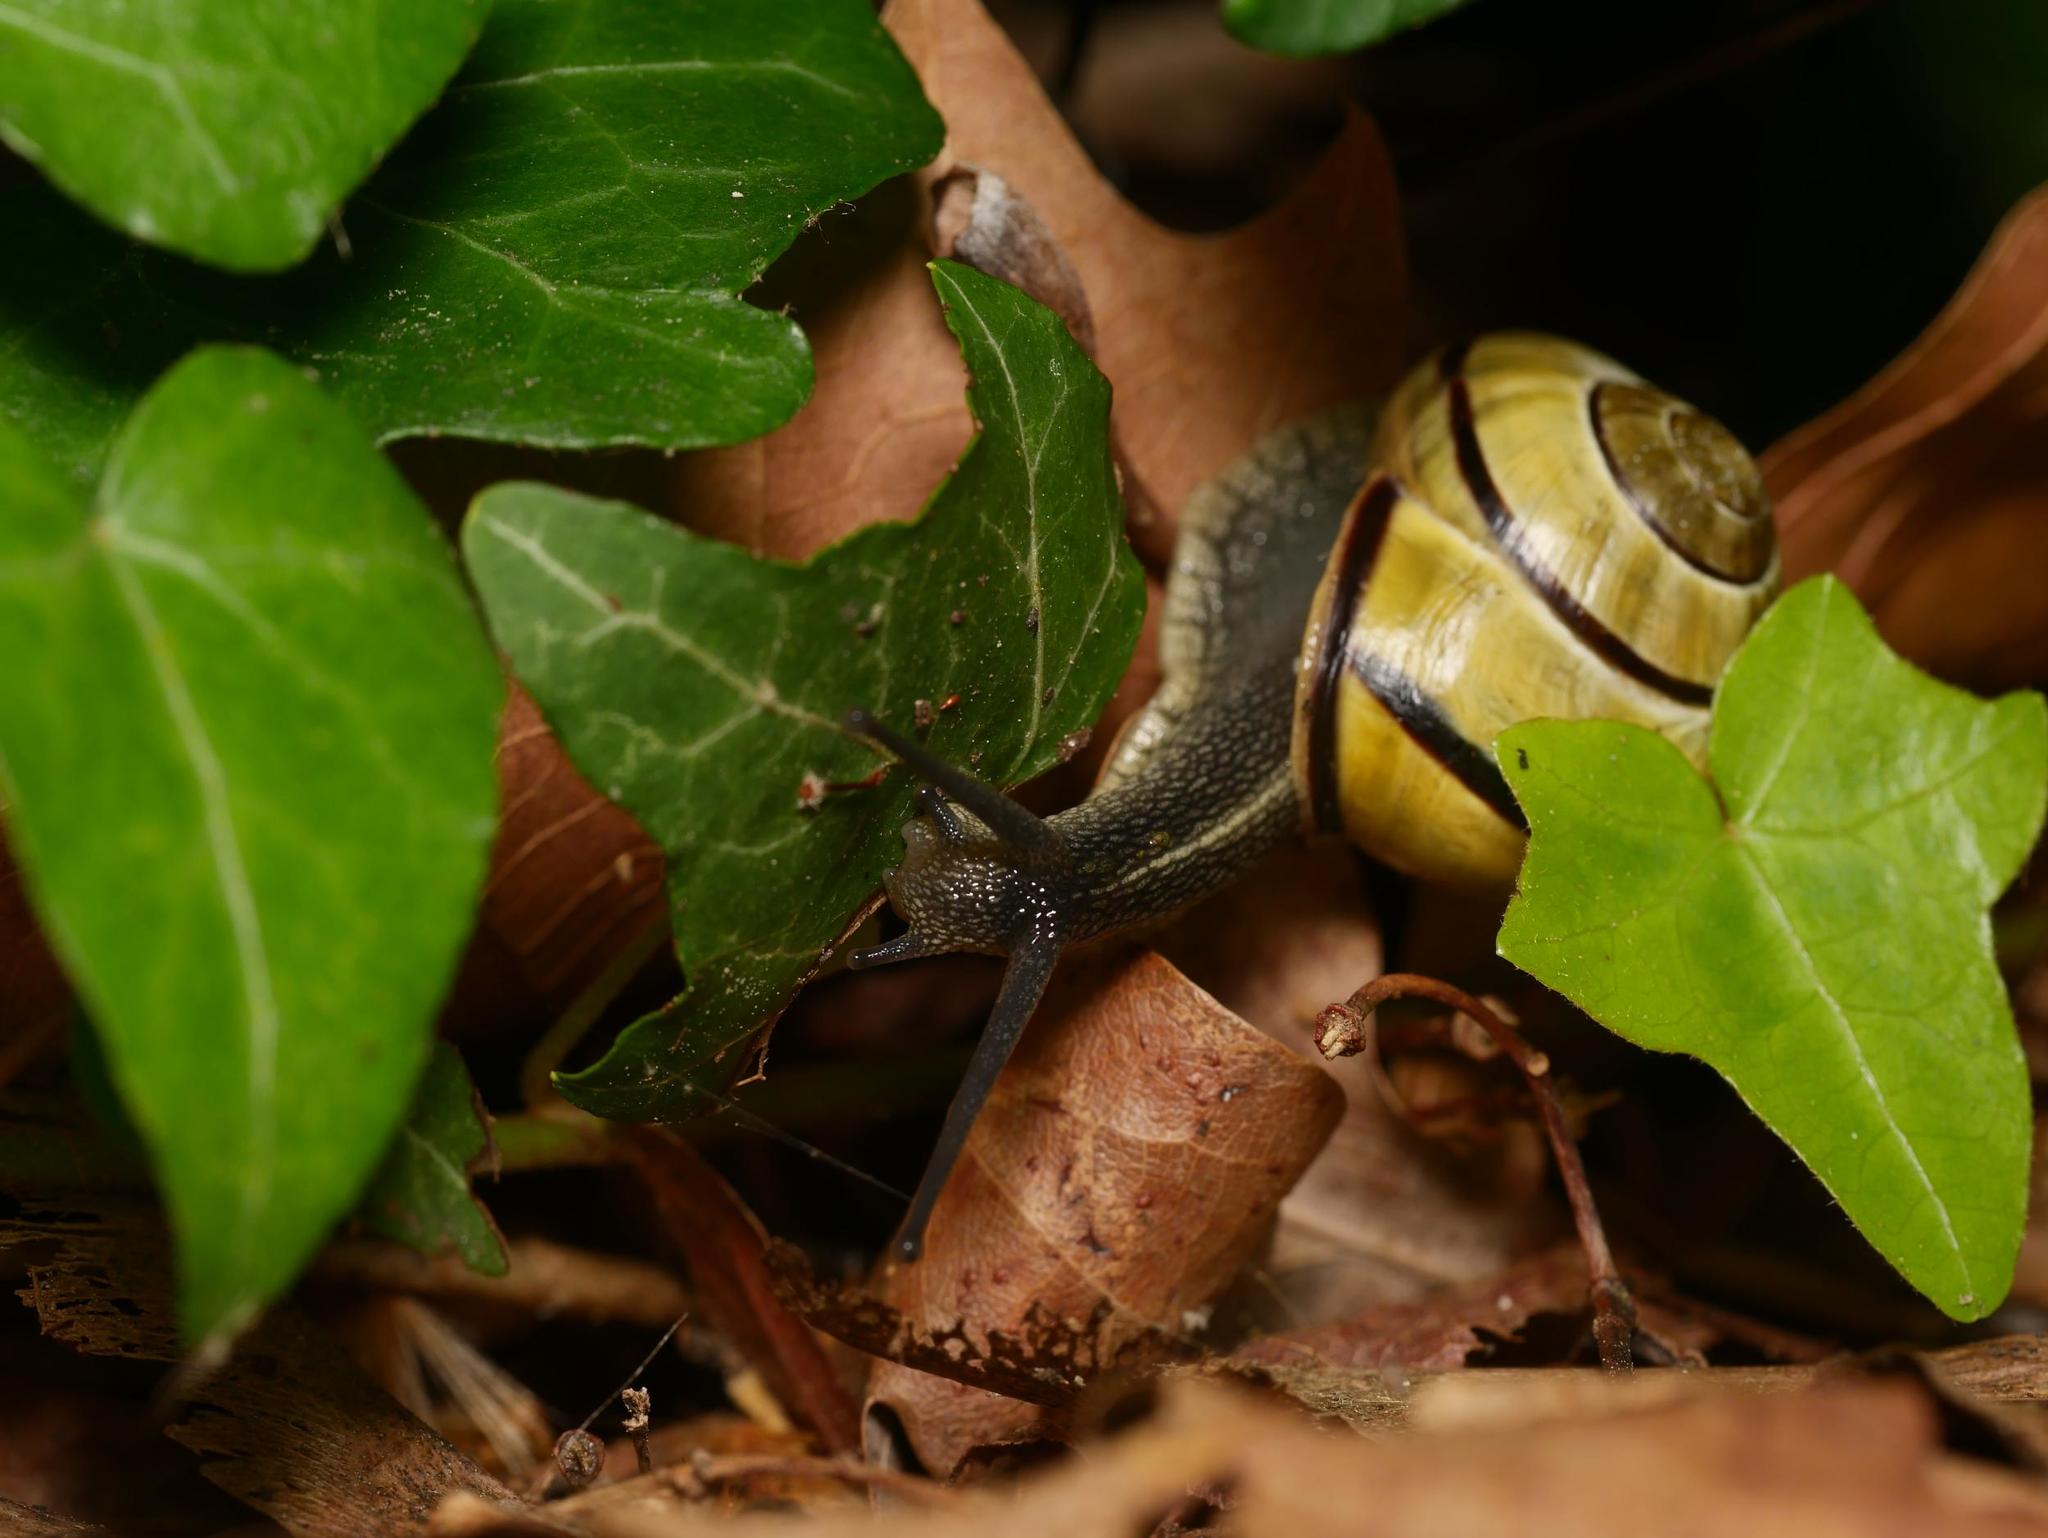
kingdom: Animalia
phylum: Mollusca
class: Gastropoda
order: Stylommatophora
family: Helicidae
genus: Cepaea
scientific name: Cepaea nemoralis
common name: Grovesnail
